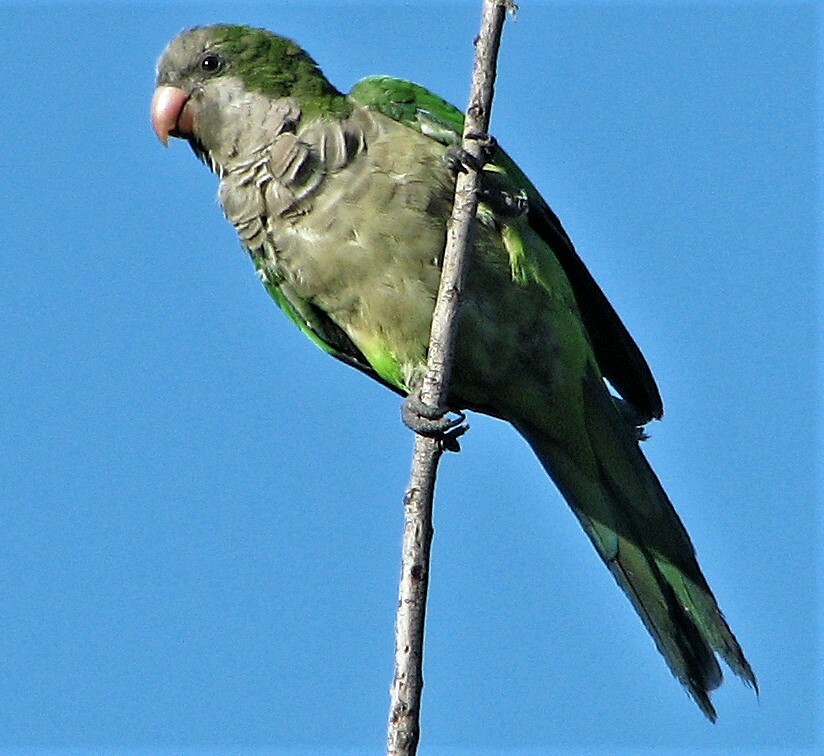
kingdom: Animalia
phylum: Chordata
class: Aves
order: Psittaciformes
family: Psittacidae
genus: Myiopsitta
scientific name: Myiopsitta monachus
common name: Monk parakeet
